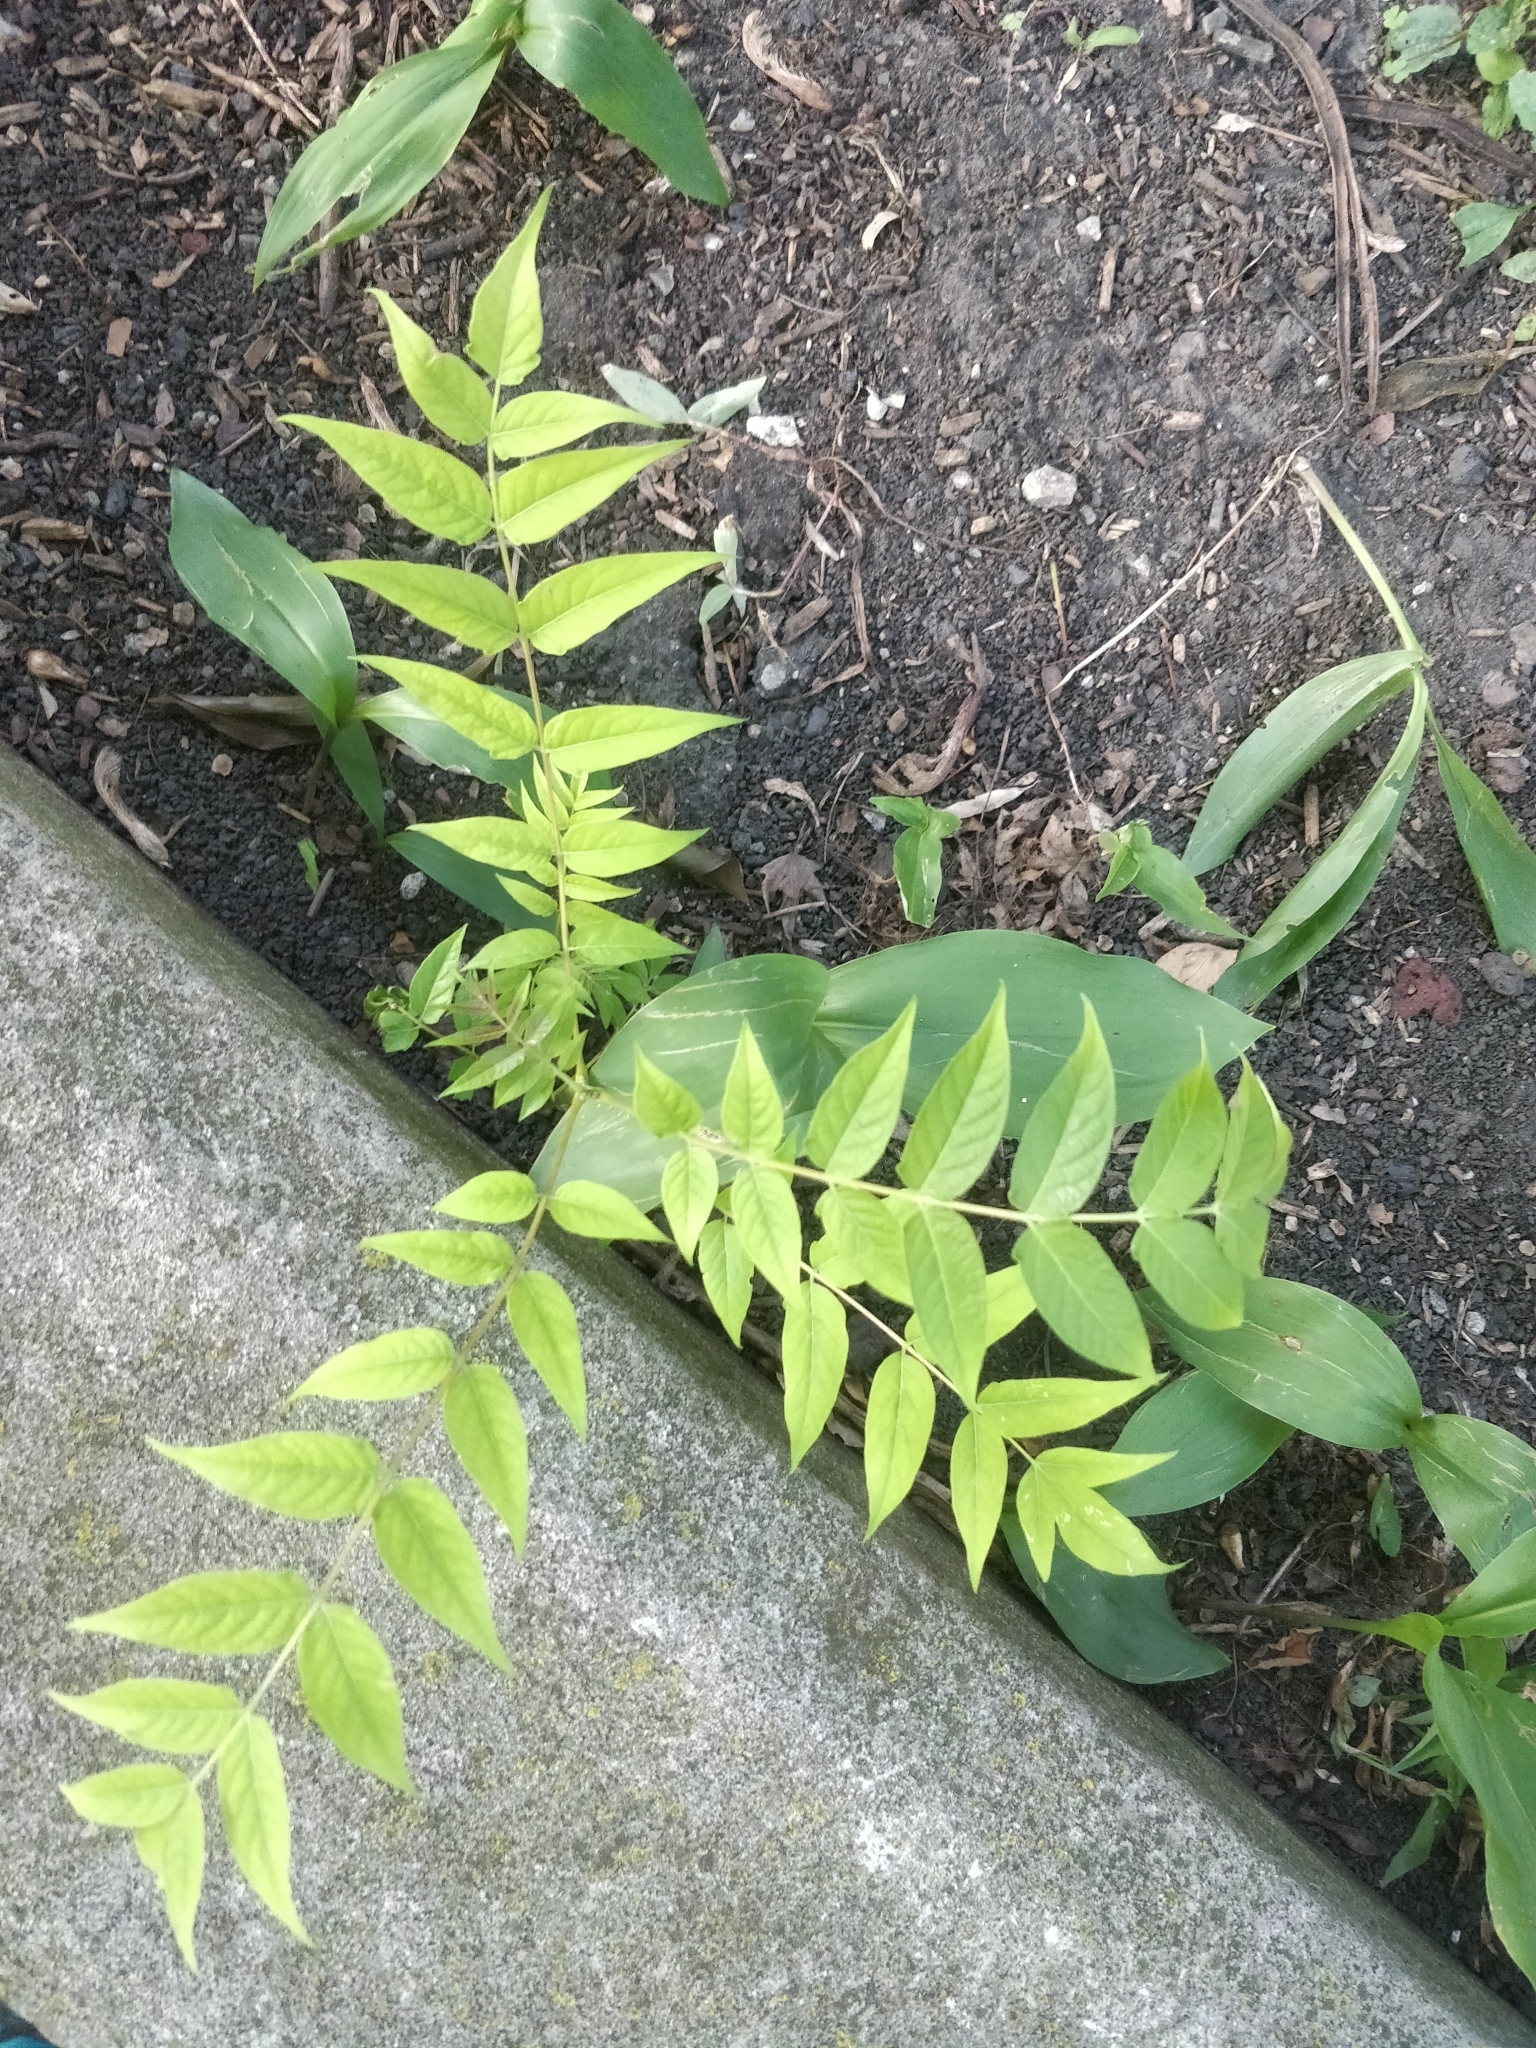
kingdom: Plantae
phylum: Tracheophyta
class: Magnoliopsida
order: Sapindales
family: Simaroubaceae
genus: Ailanthus
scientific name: Ailanthus altissima
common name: Tree-of-heaven
